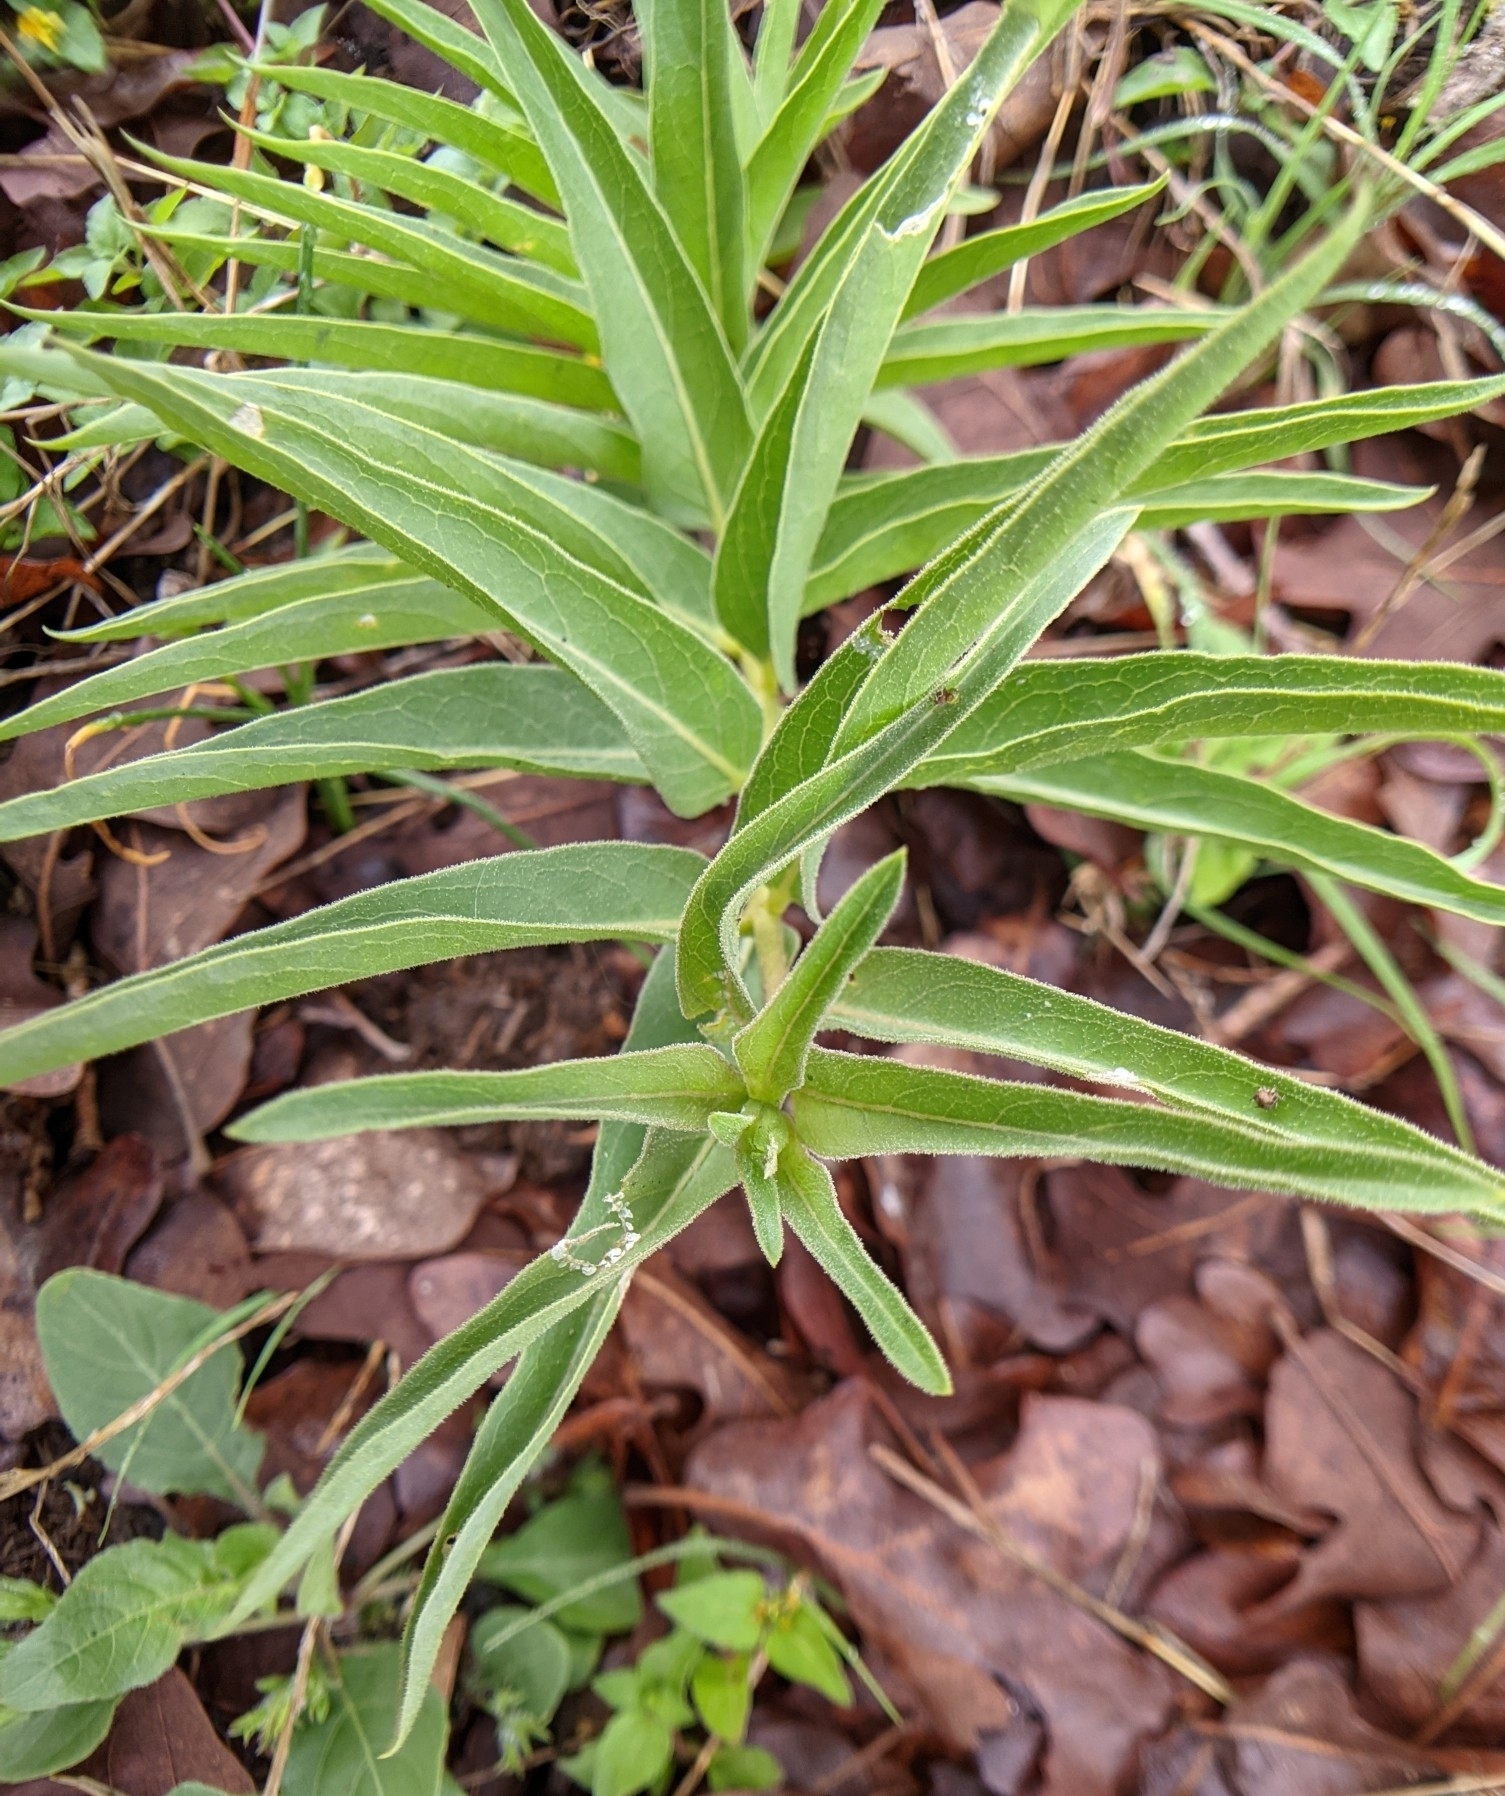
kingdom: Plantae
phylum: Tracheophyta
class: Magnoliopsida
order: Gentianales
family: Apocynaceae
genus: Asclepias
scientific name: Asclepias asperula
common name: Antelope horns
